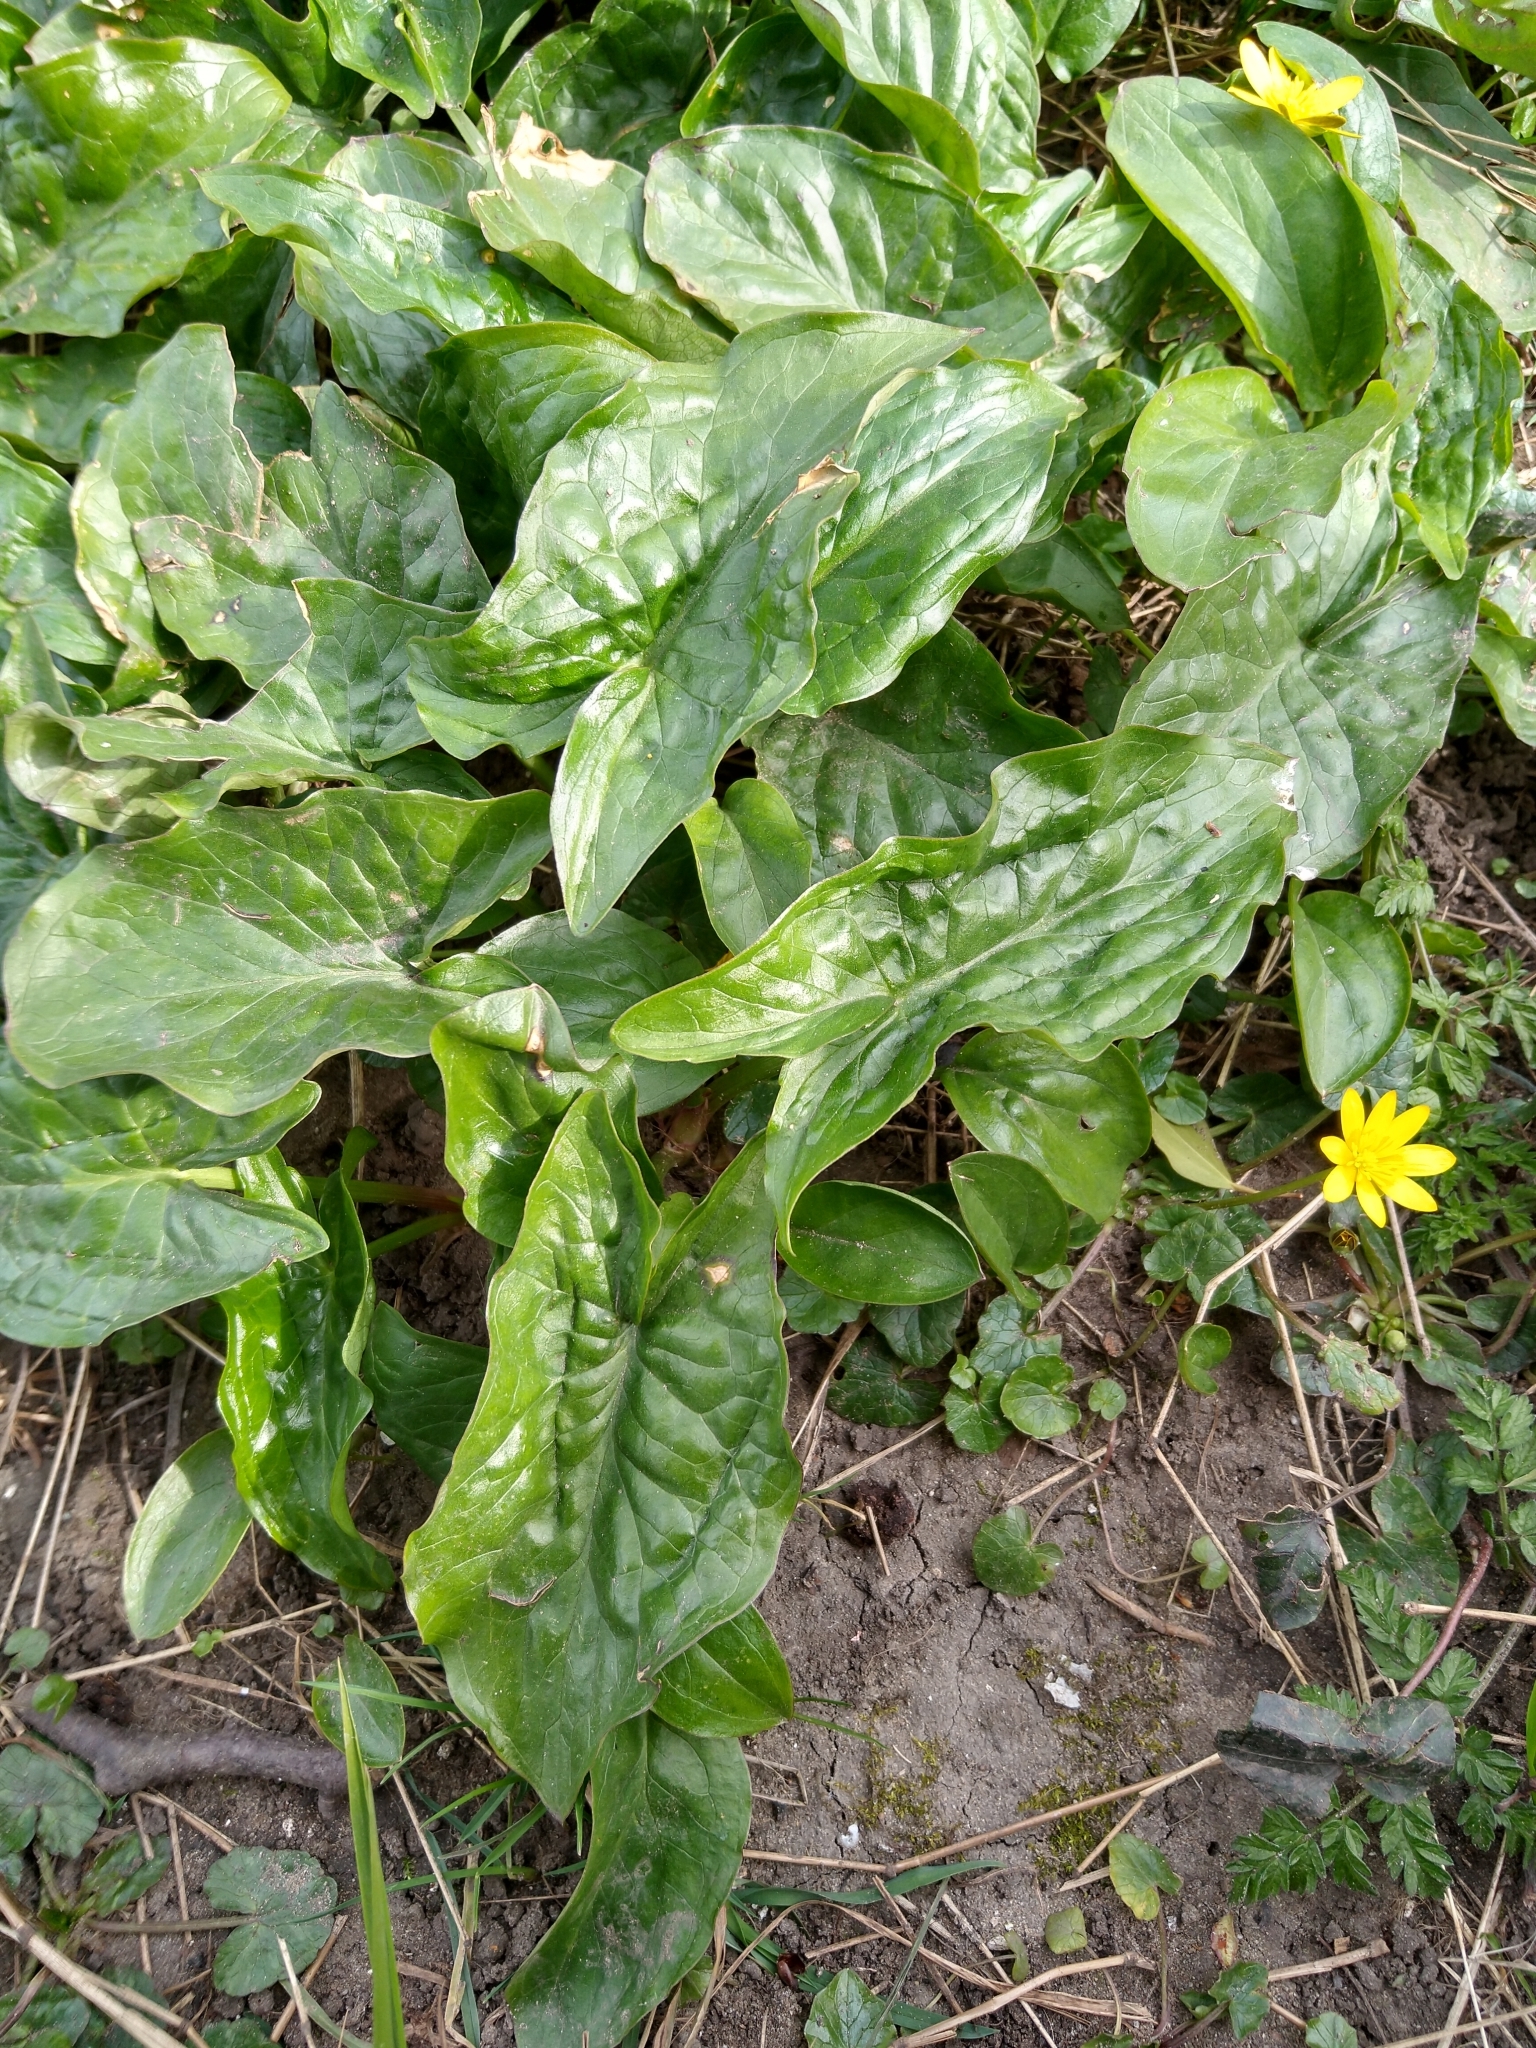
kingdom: Plantae
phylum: Tracheophyta
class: Liliopsida
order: Alismatales
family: Araceae
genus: Arum
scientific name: Arum maculatum
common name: Lords-and-ladies
